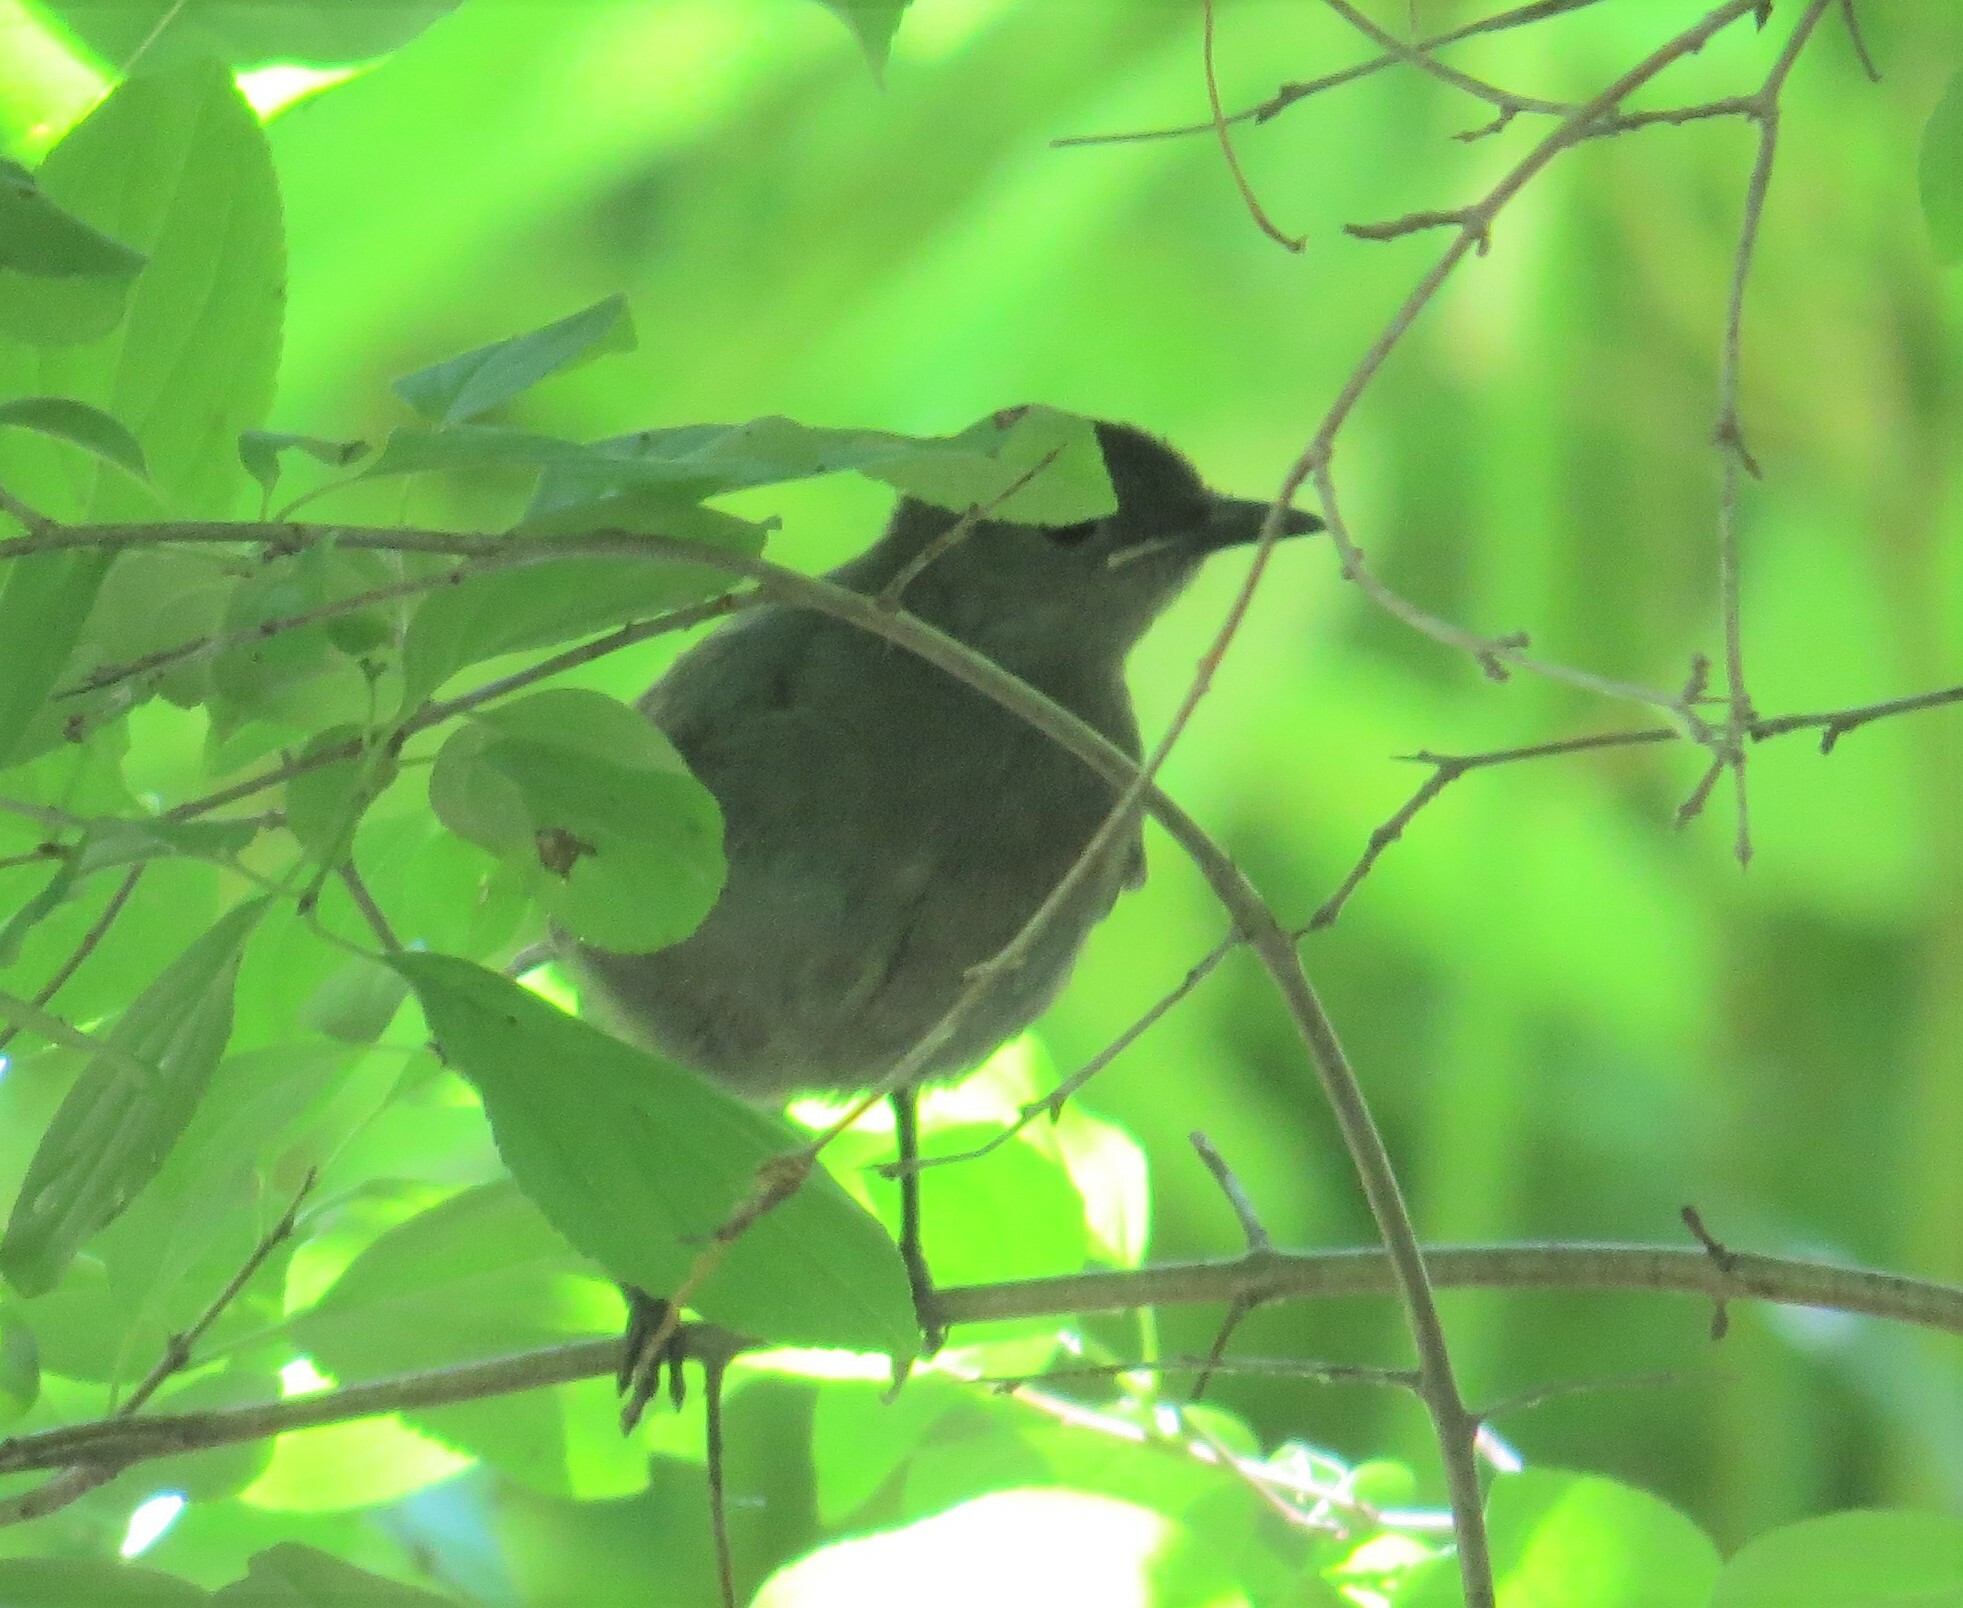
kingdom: Animalia
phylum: Chordata
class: Aves
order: Passeriformes
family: Mimidae
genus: Dumetella
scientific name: Dumetella carolinensis
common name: Gray catbird
